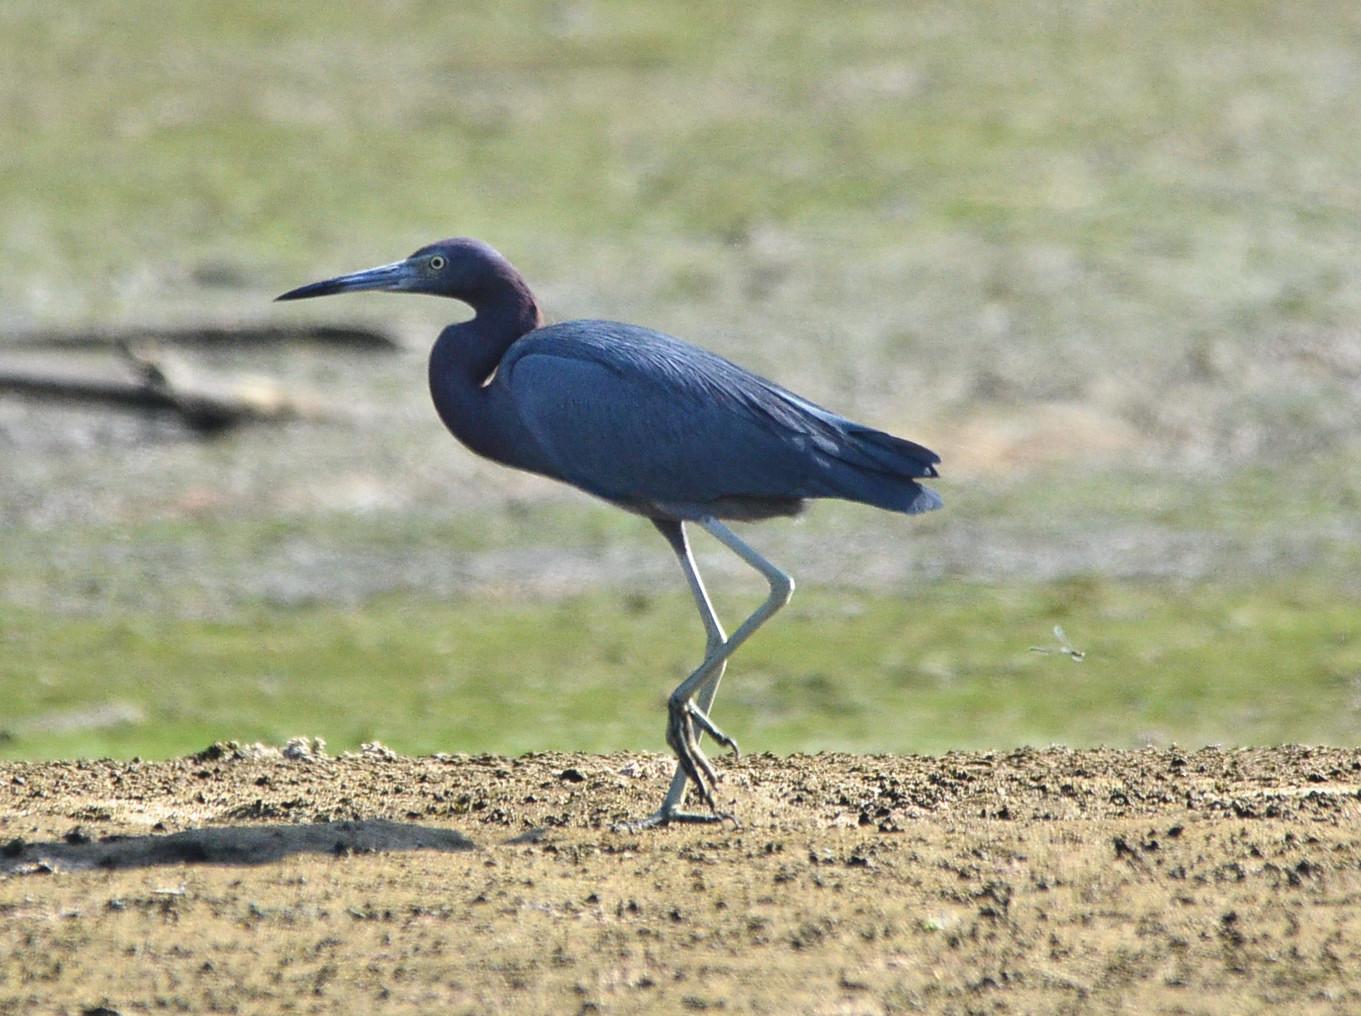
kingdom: Animalia
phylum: Chordata
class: Aves
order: Pelecaniformes
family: Ardeidae
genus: Egretta
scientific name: Egretta caerulea
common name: Little blue heron
